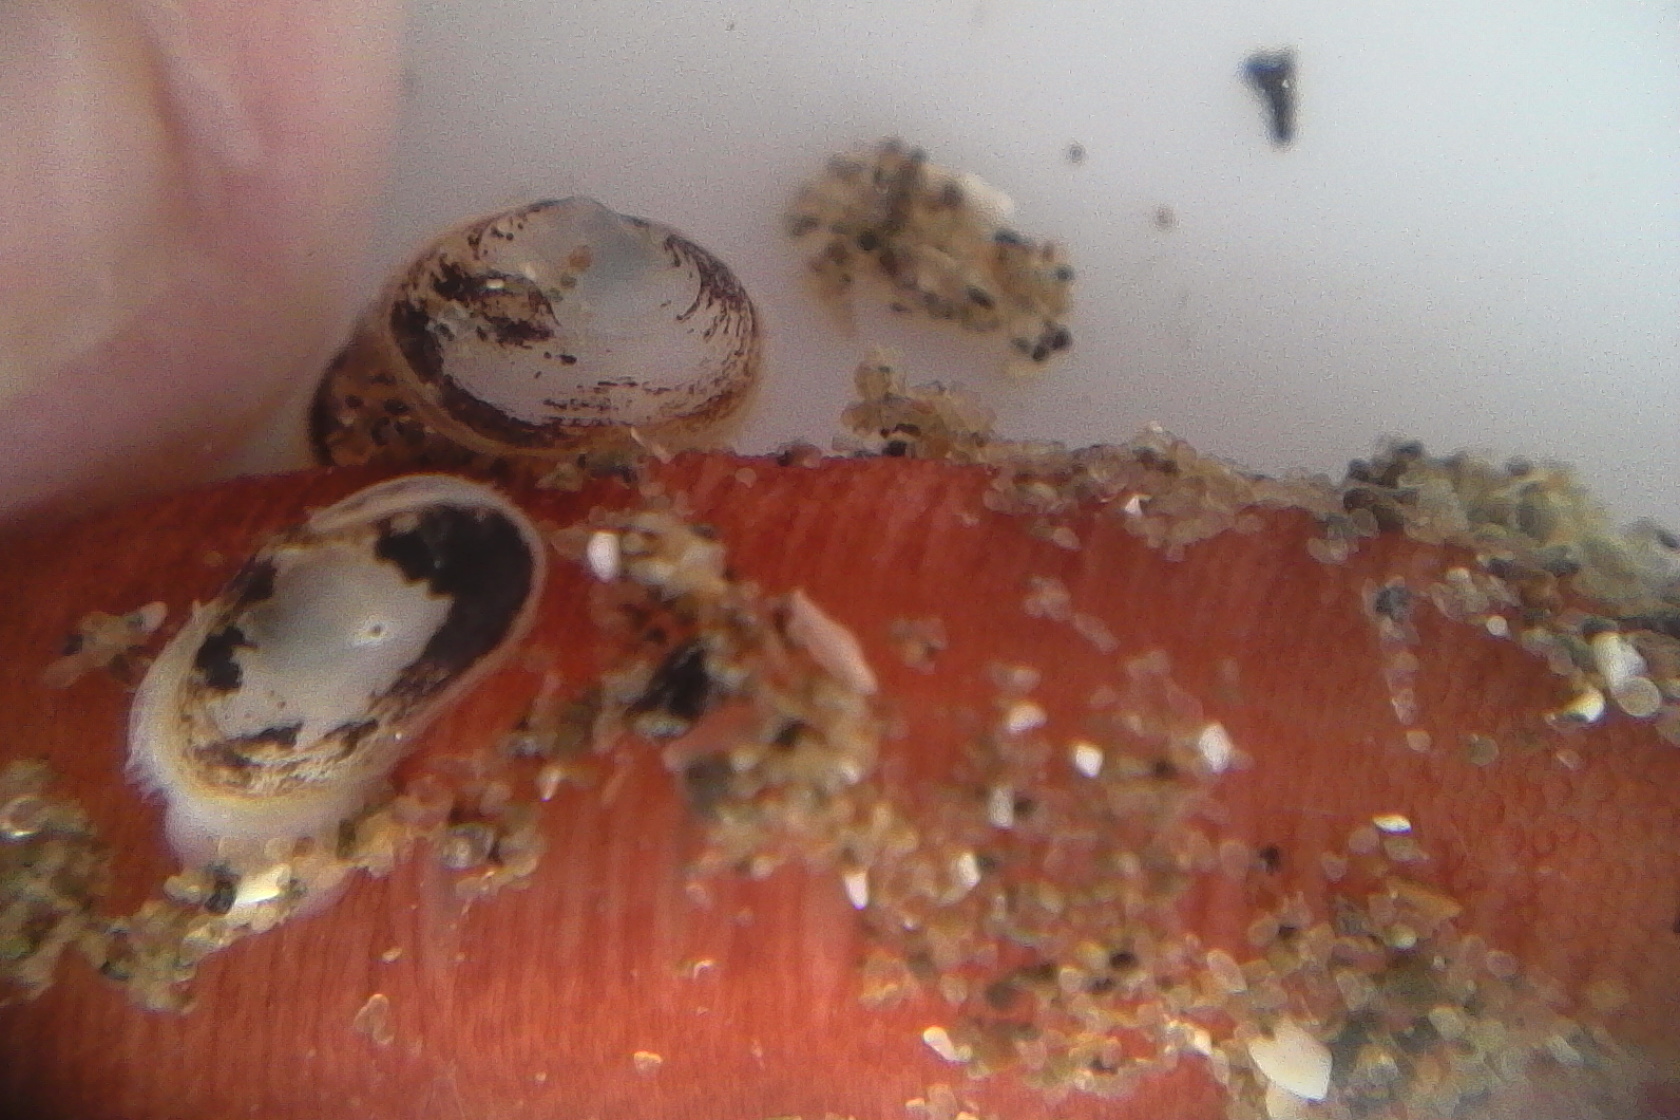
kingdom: Animalia
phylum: Mollusca
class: Bivalvia
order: Galeommatida
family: Galeommatidae
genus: Scintillona
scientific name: Scintillona zelandica
